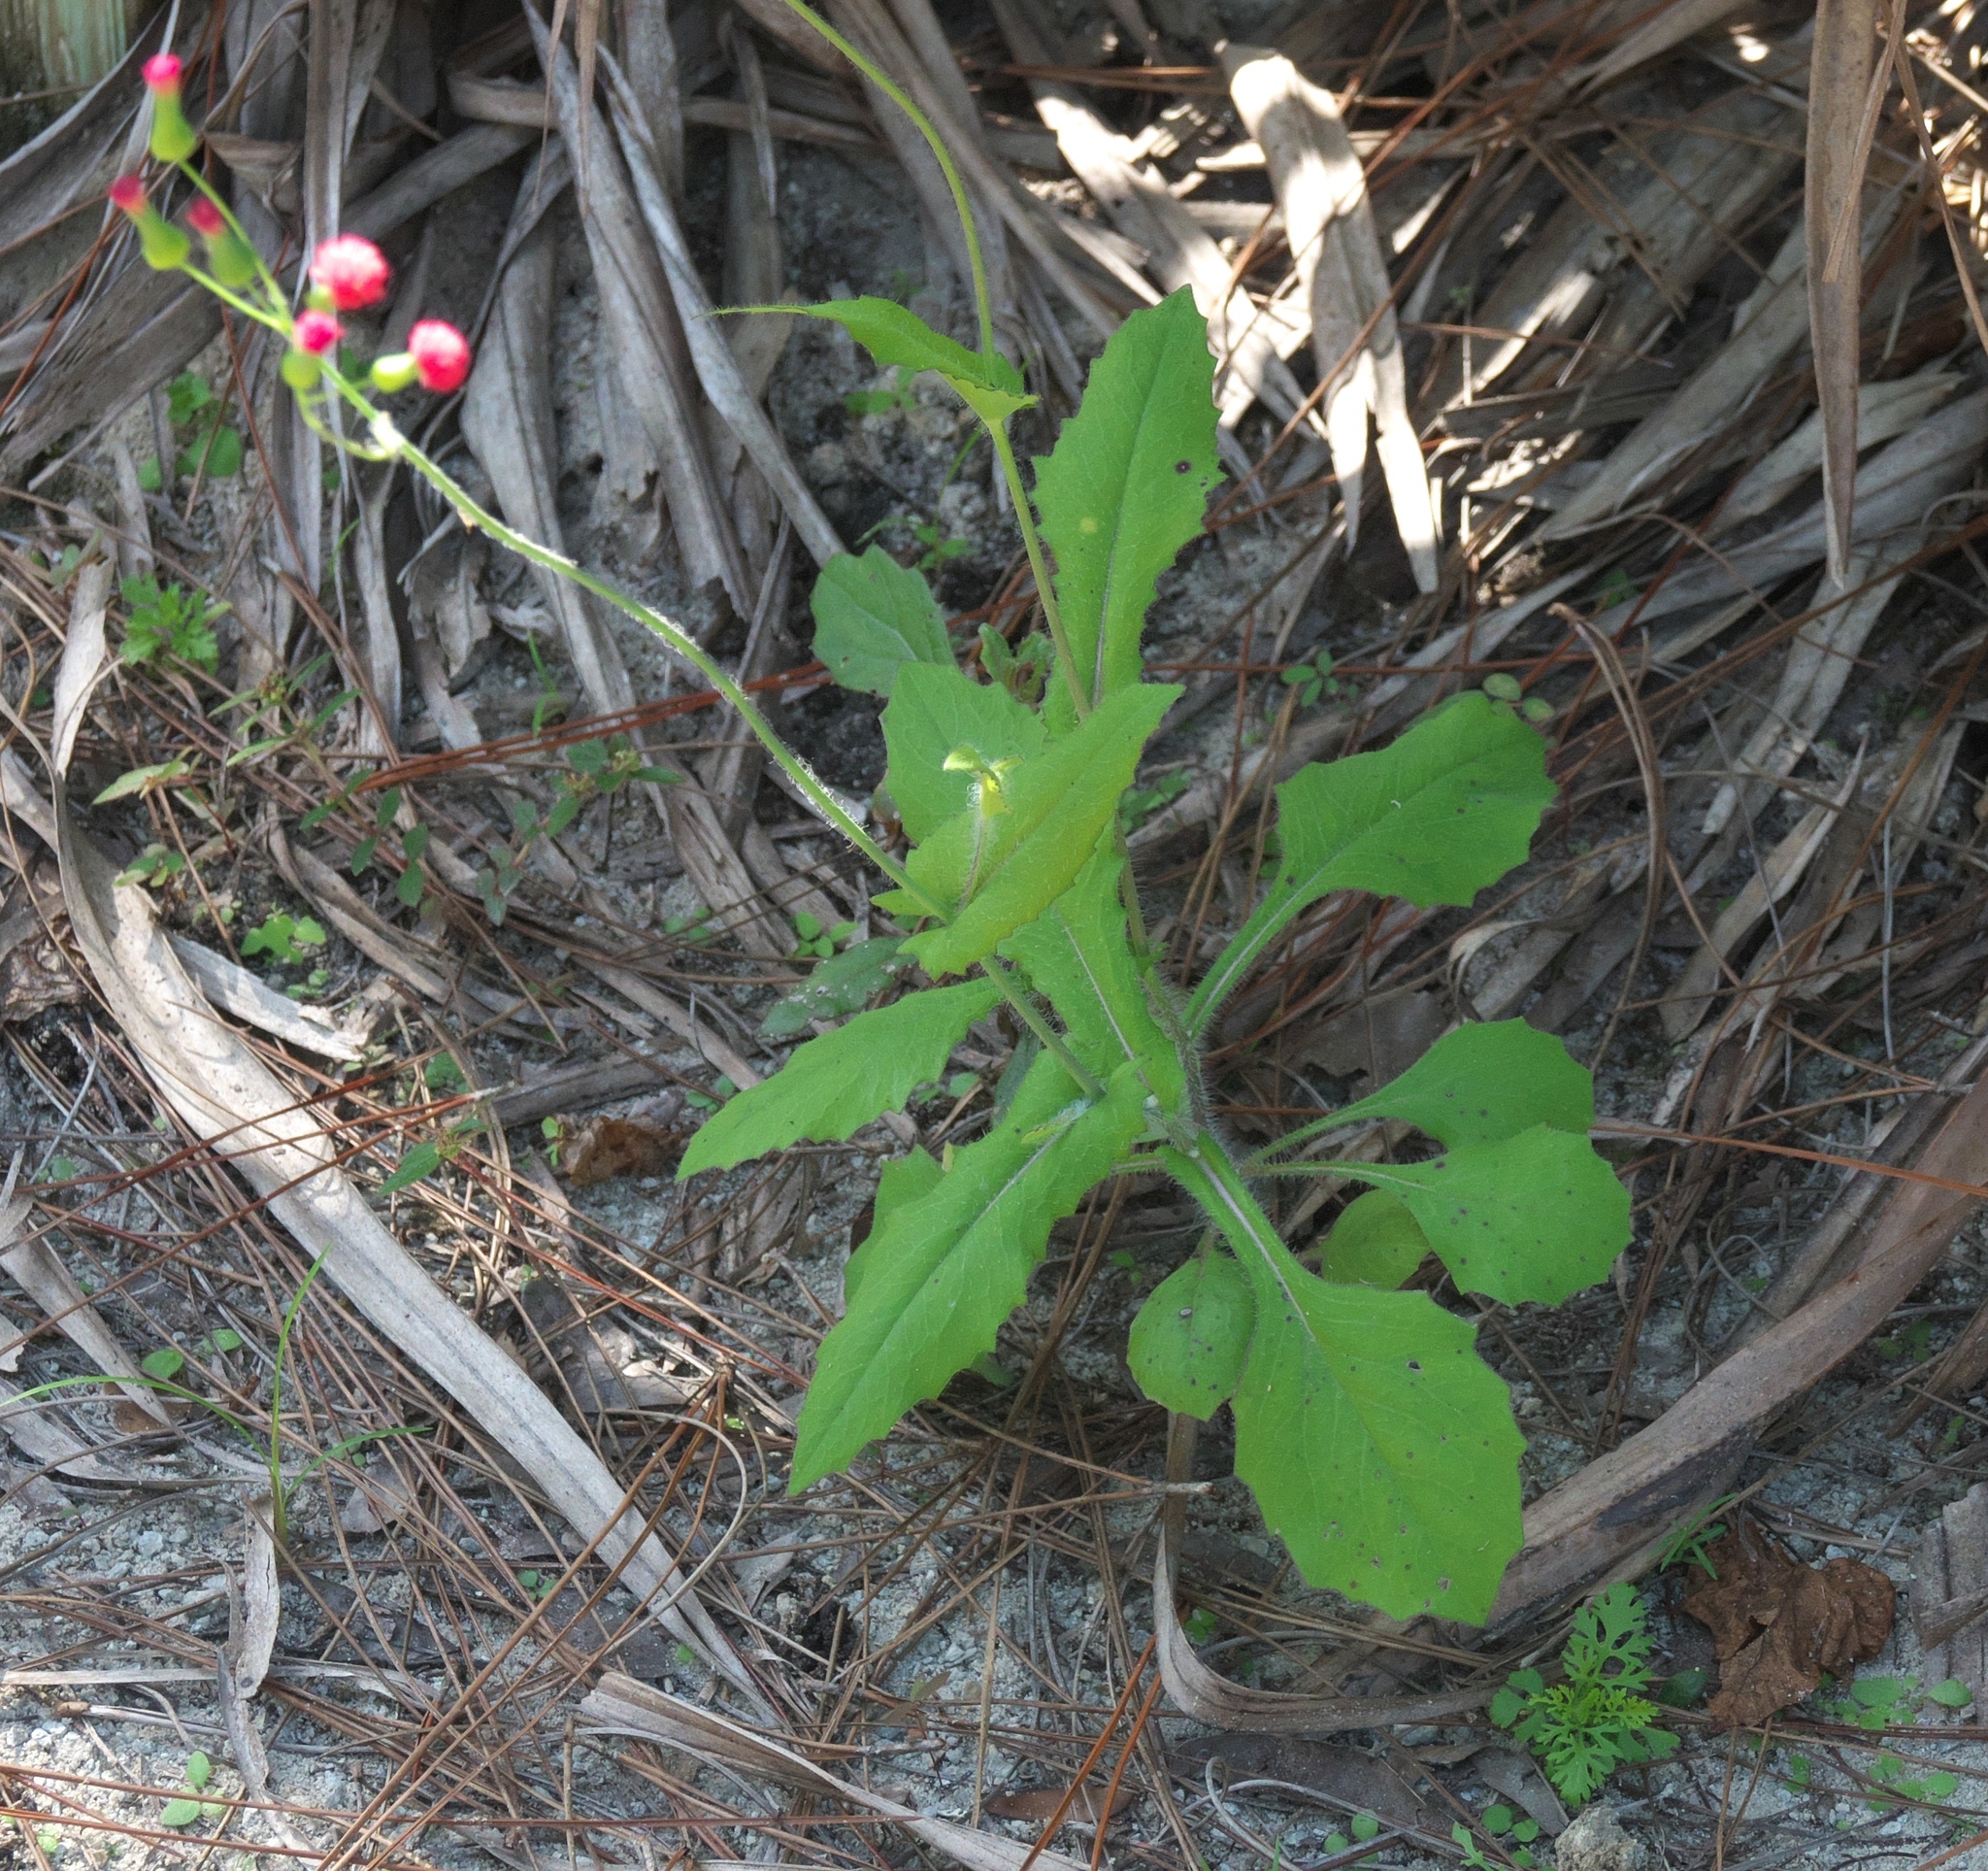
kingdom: Plantae
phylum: Tracheophyta
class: Magnoliopsida
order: Asterales
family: Asteraceae
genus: Emilia
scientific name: Emilia fosbergii
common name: Florida tasselflower
